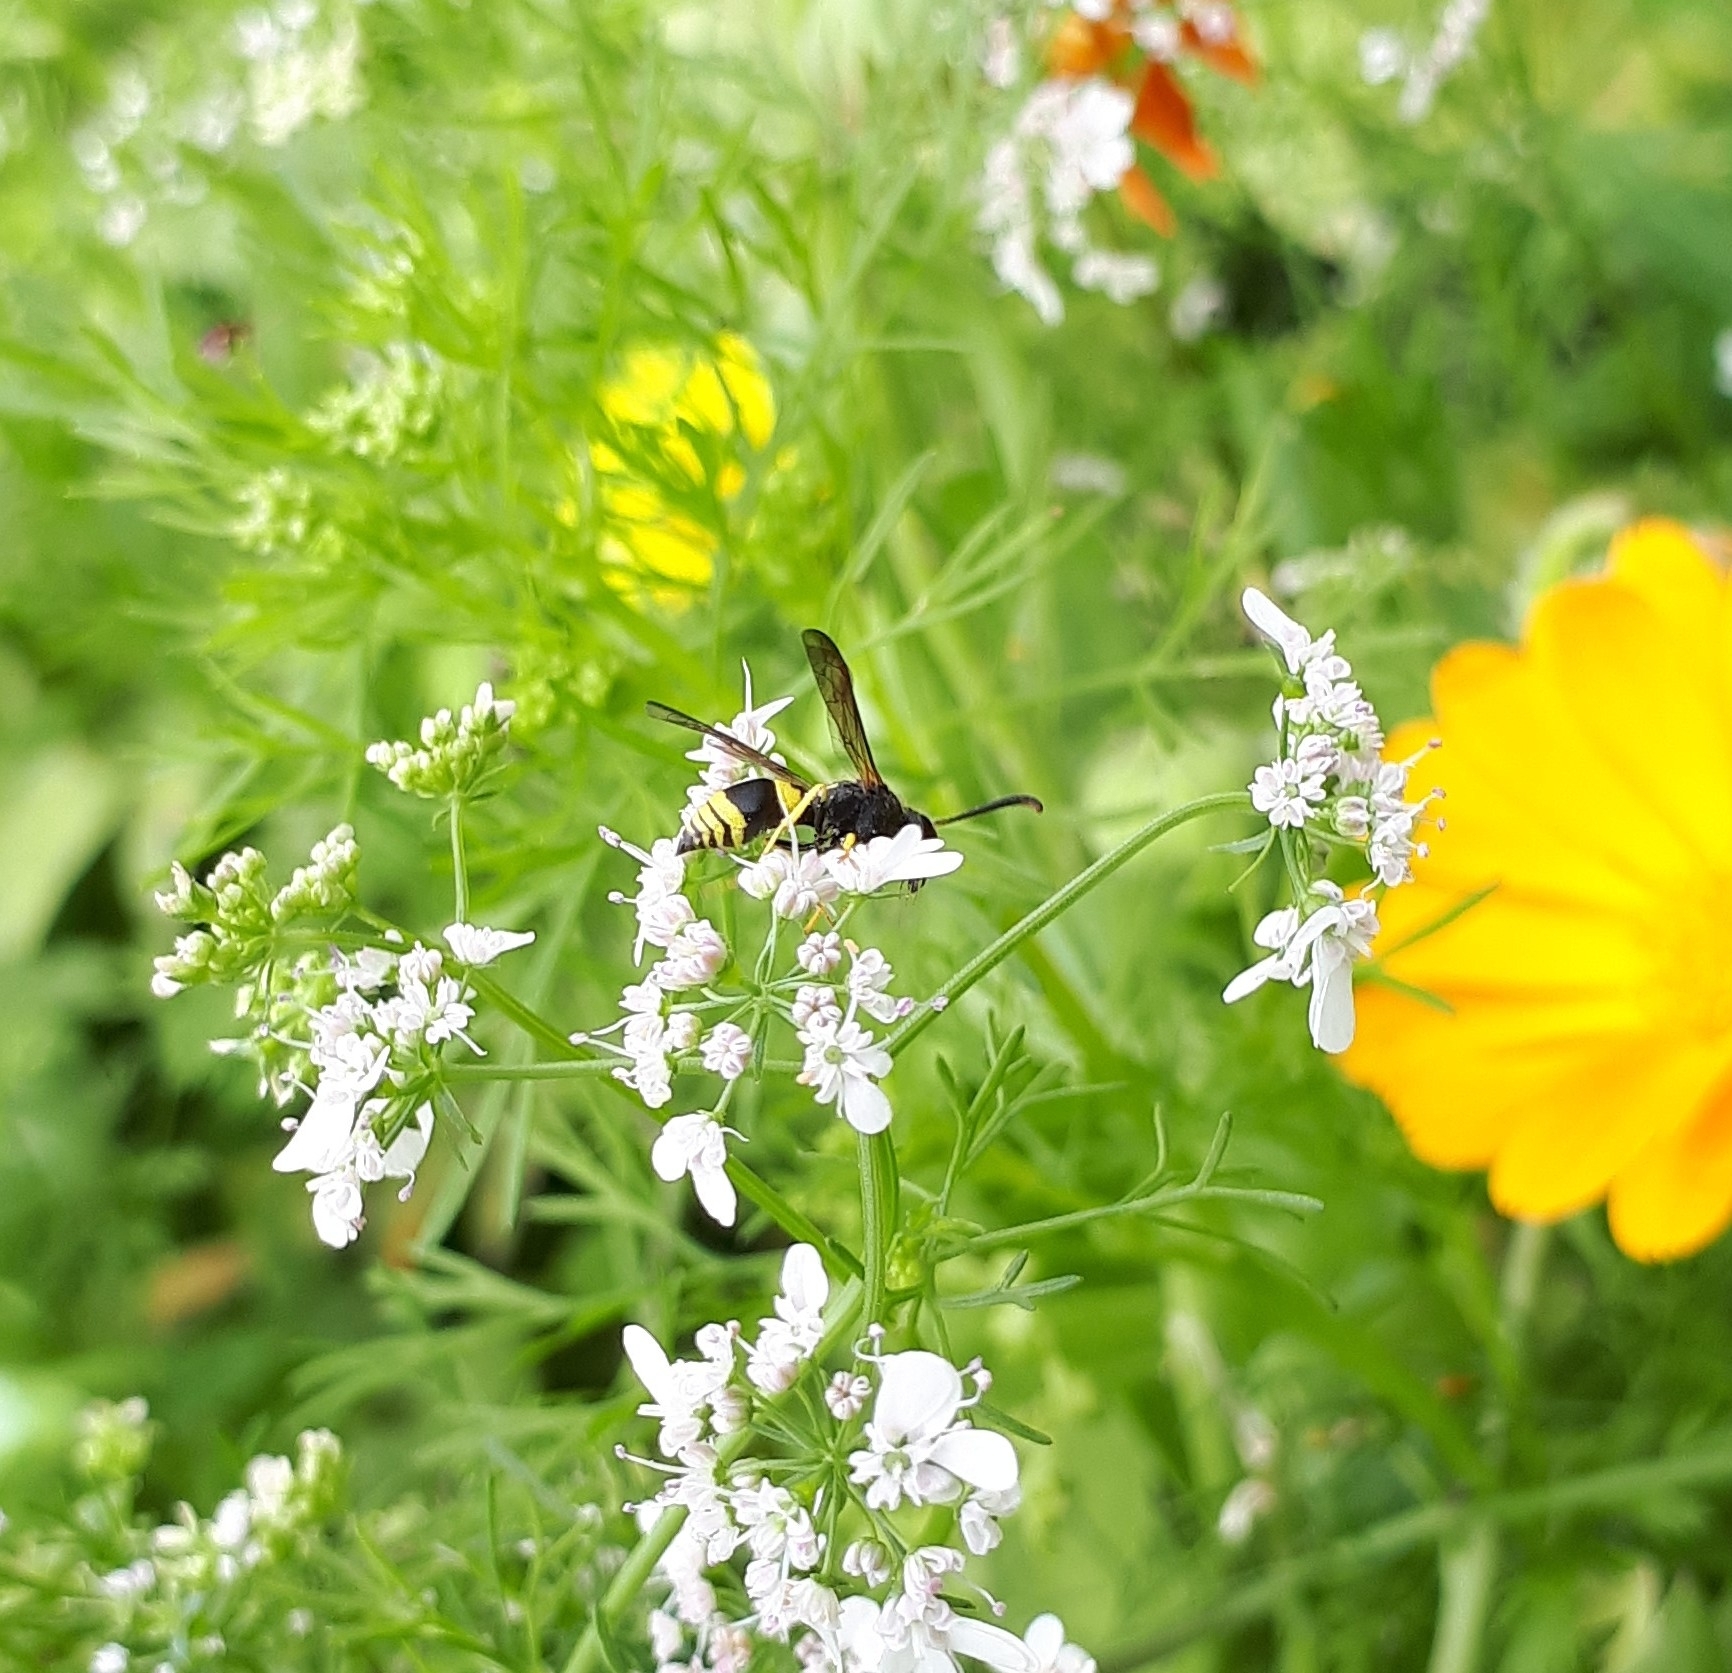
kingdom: Animalia
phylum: Arthropoda
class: Insecta
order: Hymenoptera
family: Vespidae
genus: Ancistrocerus
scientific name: Ancistrocerus gazella
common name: European tube wasp
